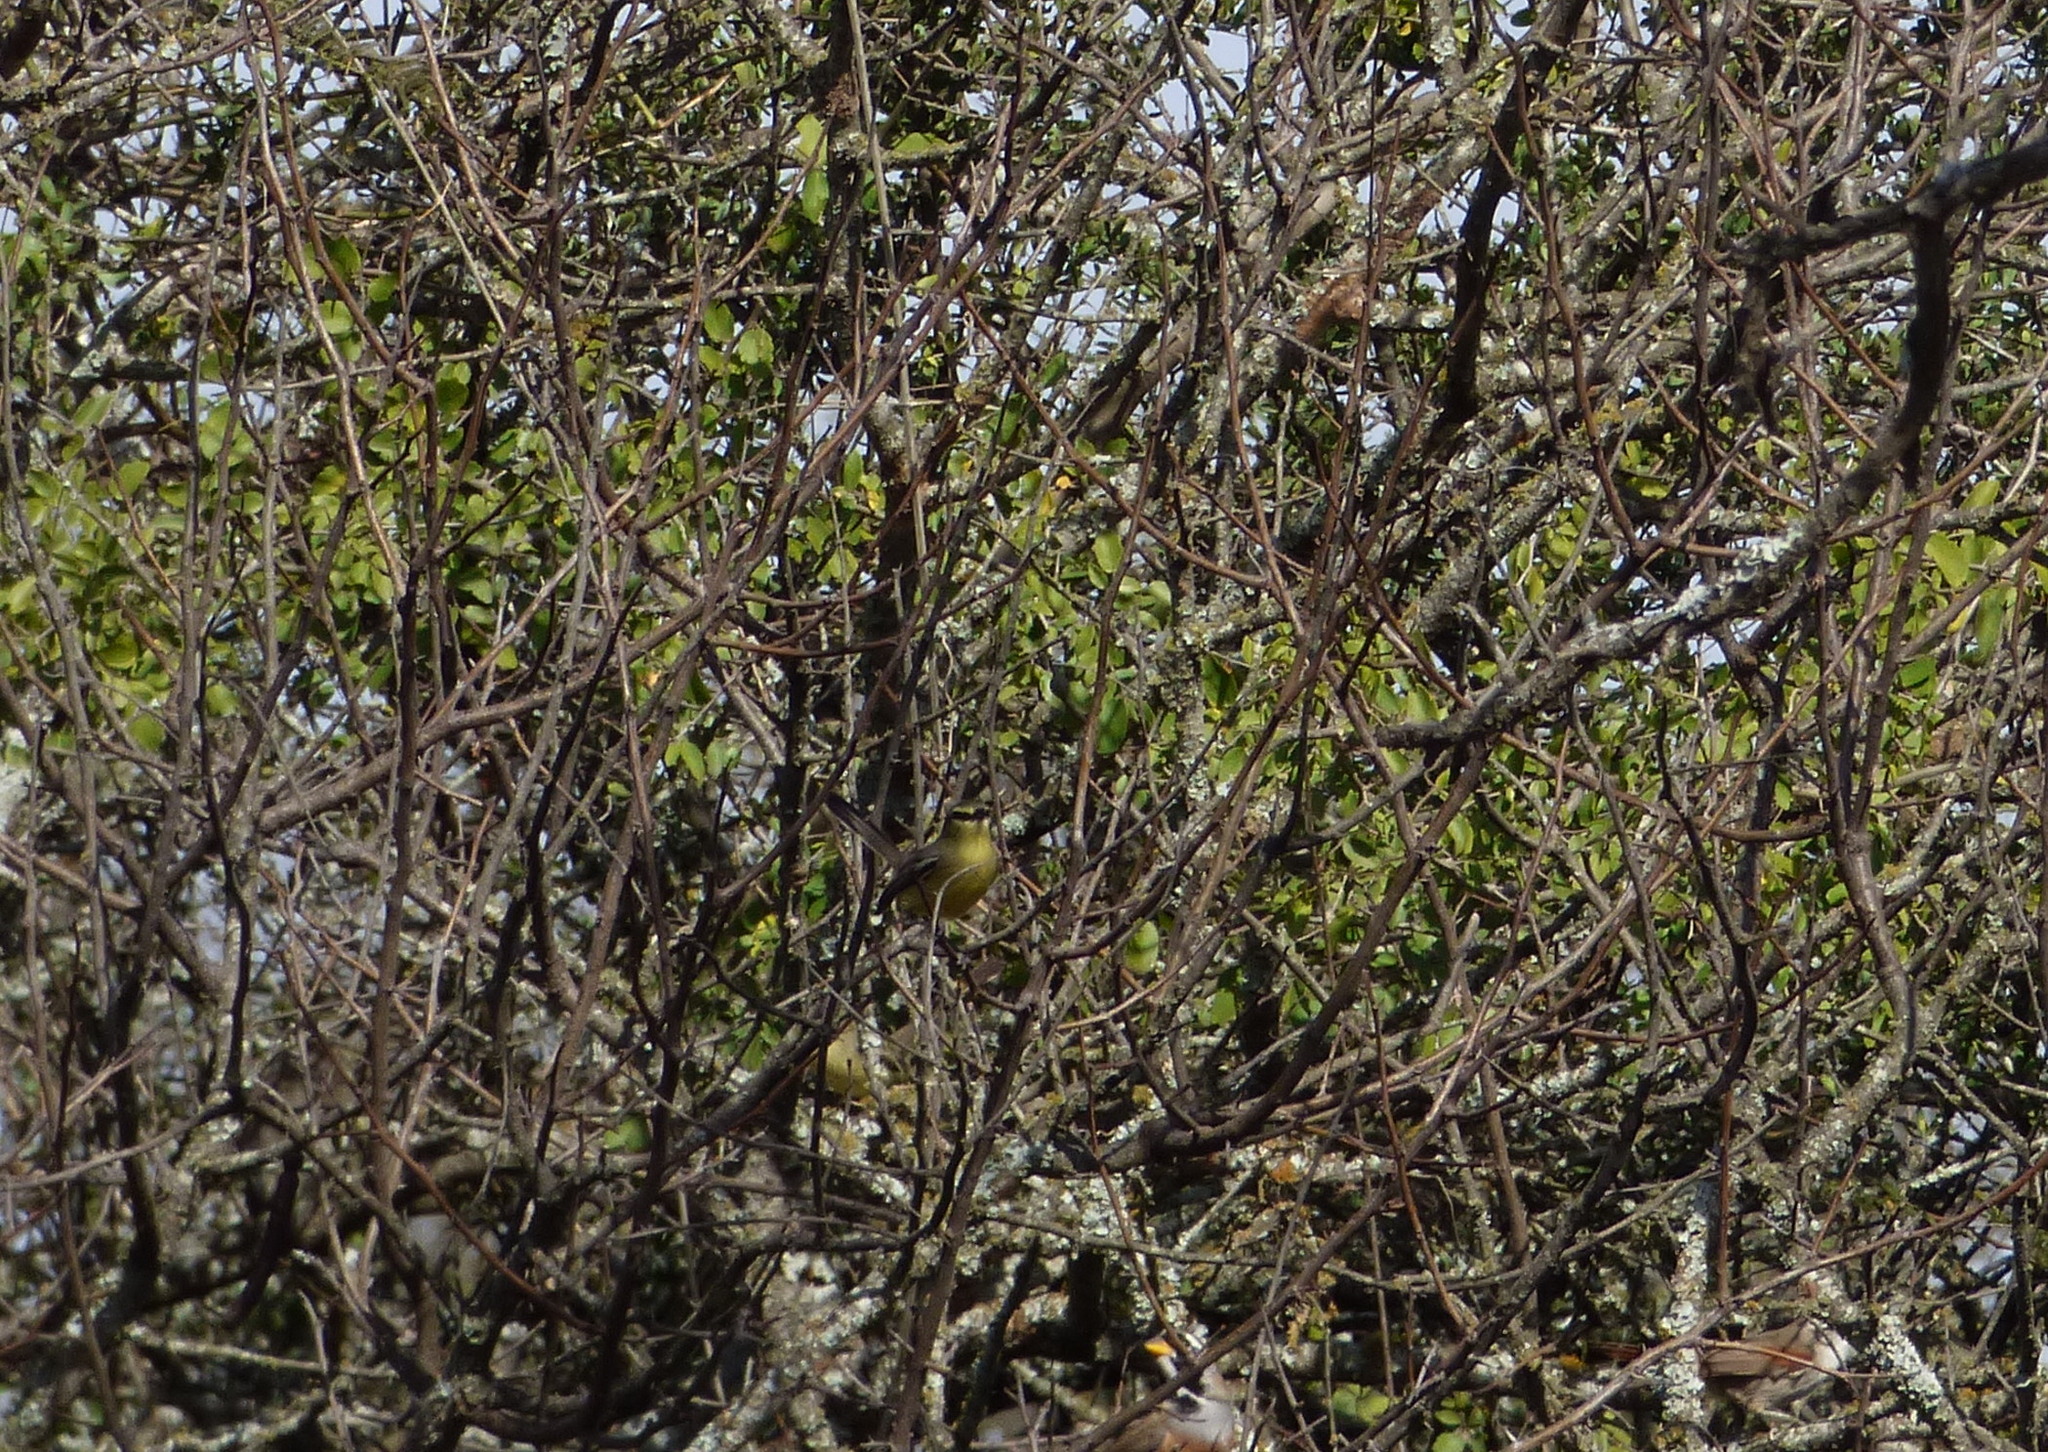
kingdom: Animalia
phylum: Chordata
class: Aves
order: Passeriformes
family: Tyrannidae
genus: Stigmatura
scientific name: Stigmatura budytoides
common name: Greater wagtail-tyrant
